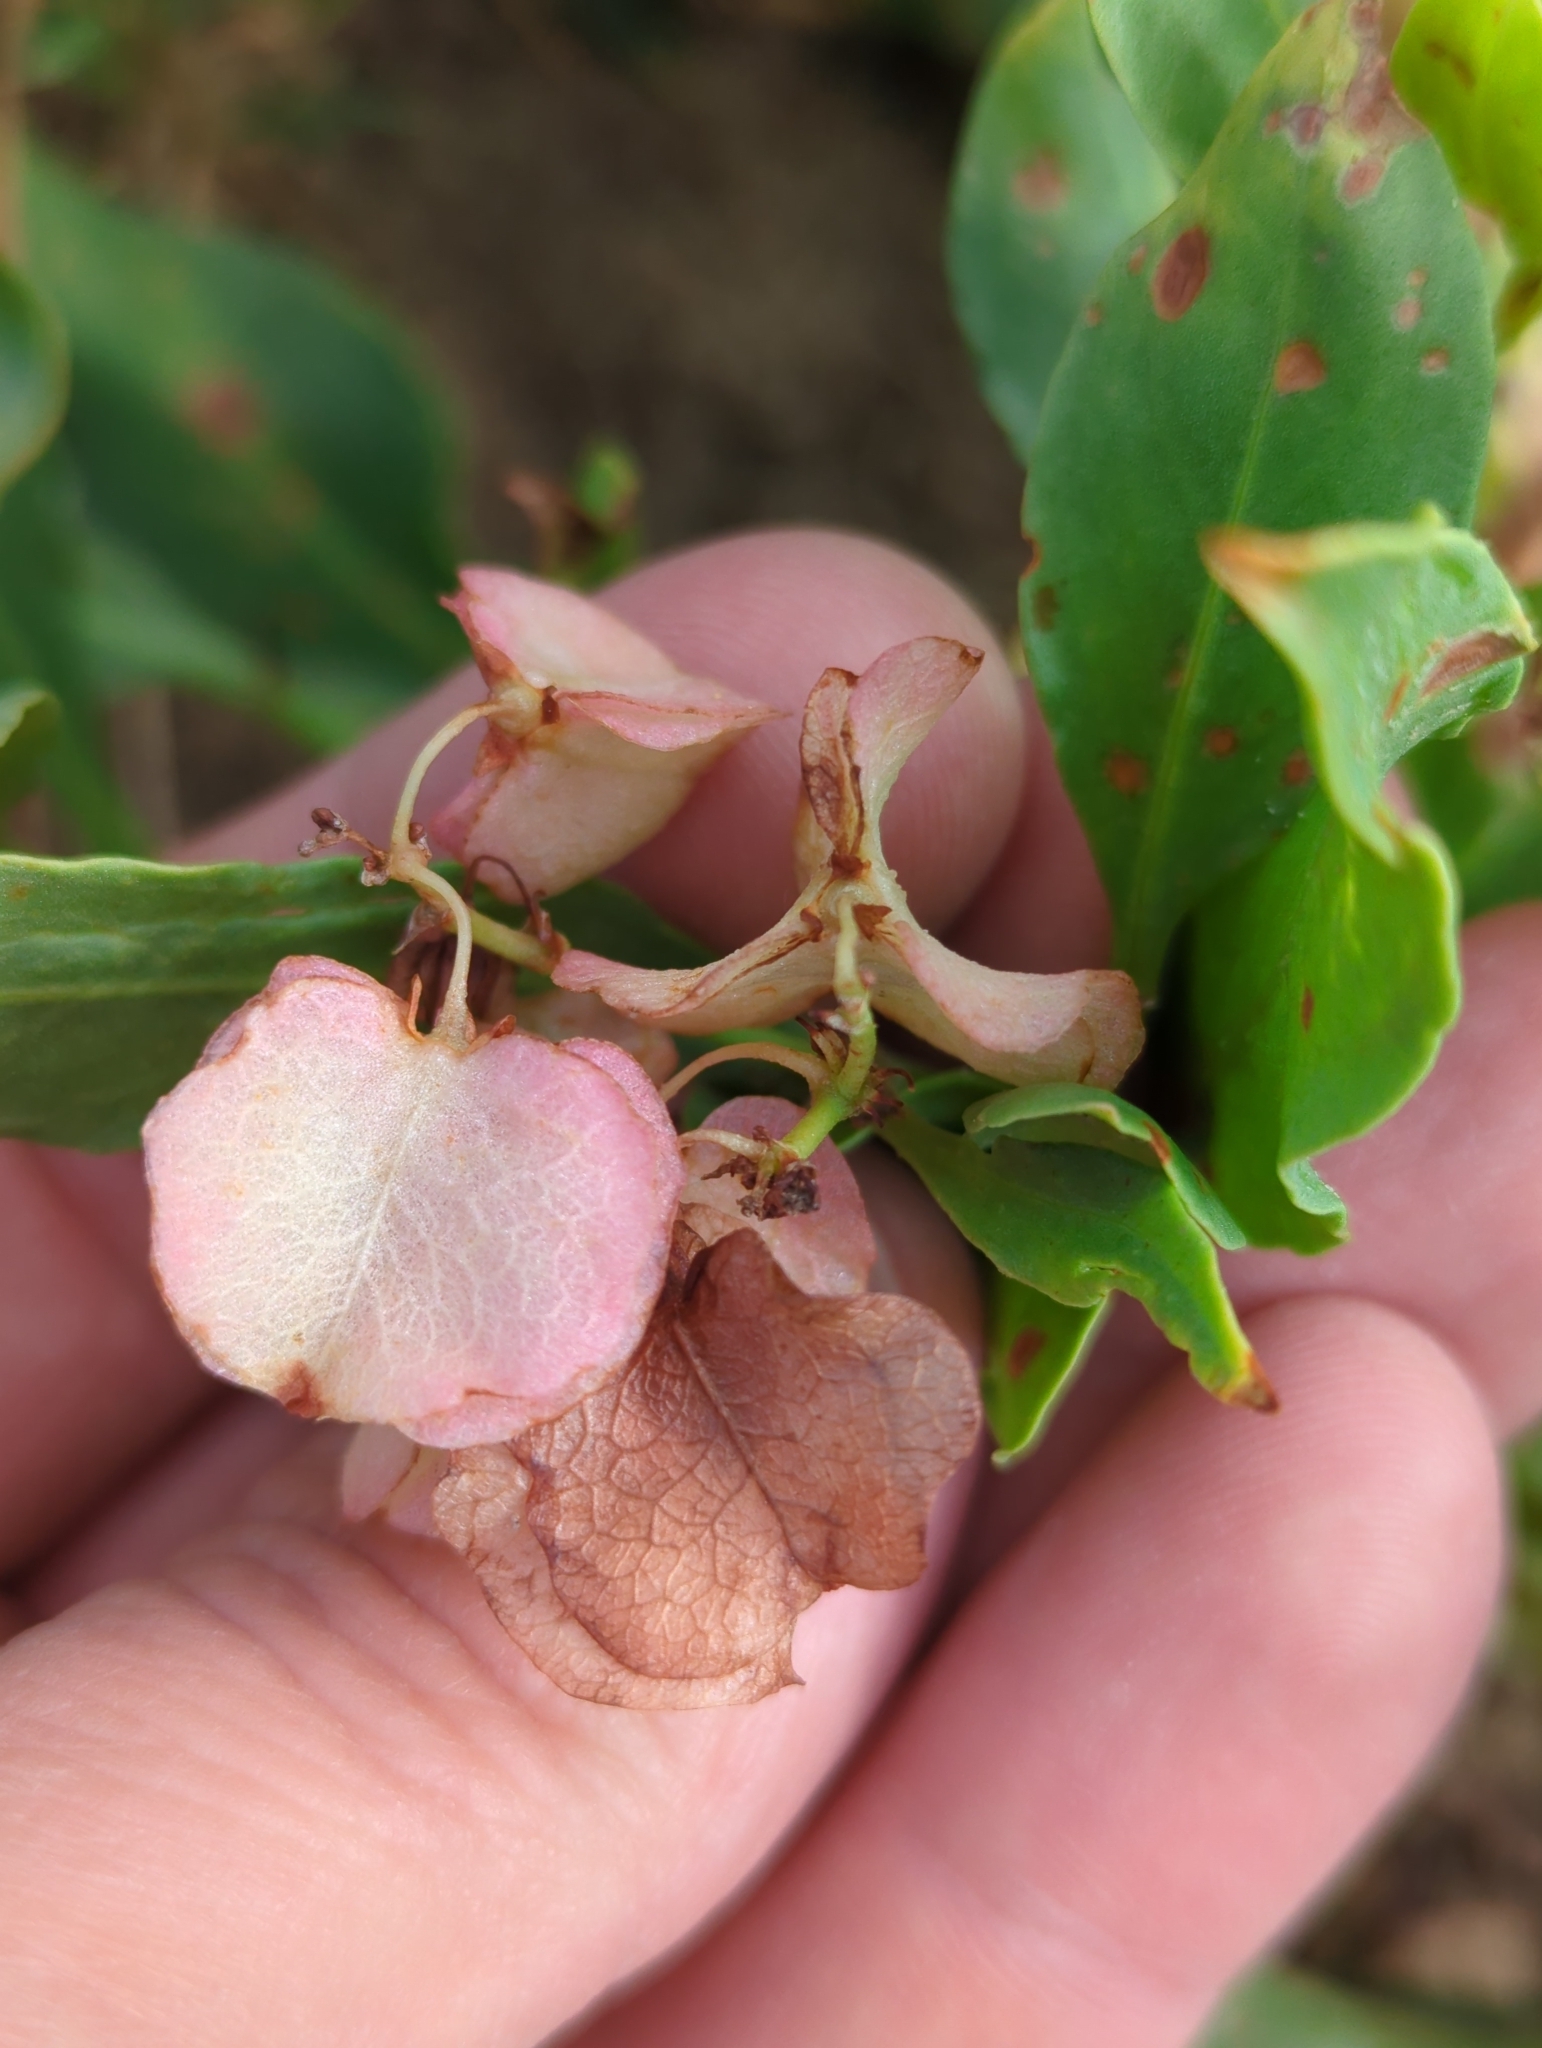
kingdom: Plantae
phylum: Tracheophyta
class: Magnoliopsida
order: Caryophyllales
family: Polygonaceae
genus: Rumex
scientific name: Rumex venosus
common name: Winged dock
